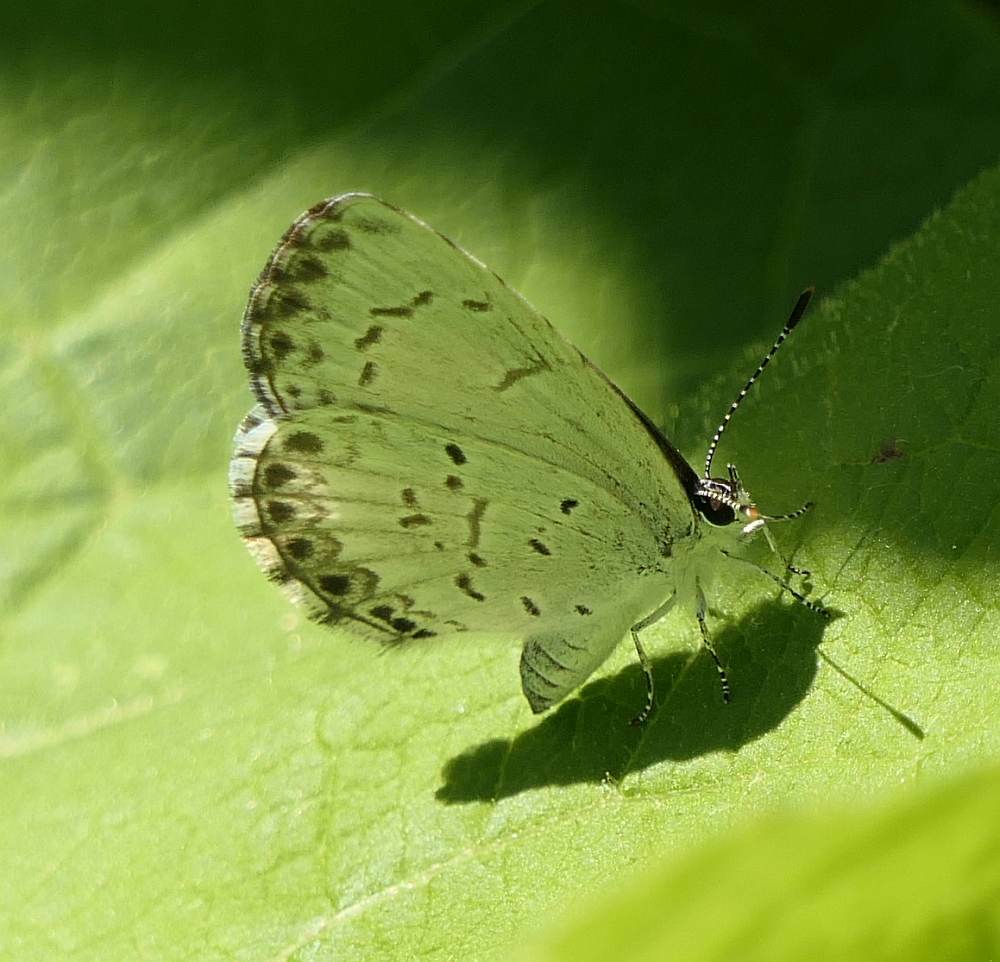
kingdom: Animalia
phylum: Arthropoda
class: Insecta
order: Lepidoptera
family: Lycaenidae
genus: Celastrina
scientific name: Celastrina lucia
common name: Lucia azure
